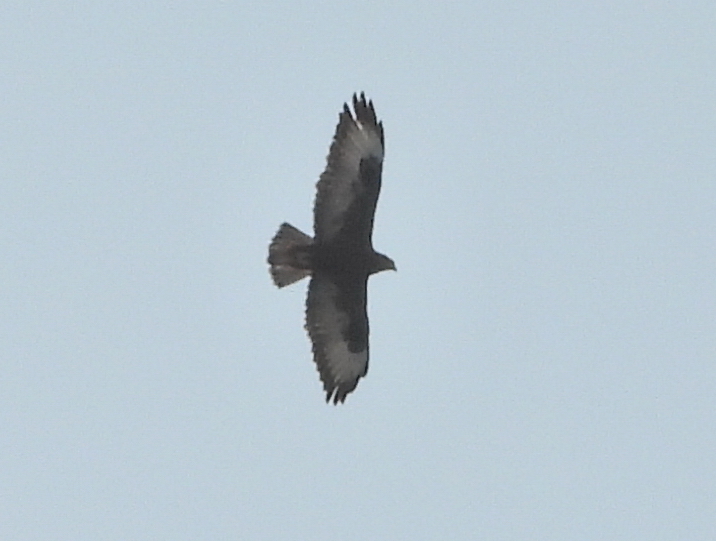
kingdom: Animalia
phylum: Chordata
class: Aves
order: Accipitriformes
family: Accipitridae
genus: Buteo
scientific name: Buteo buteo
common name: Common buzzard
